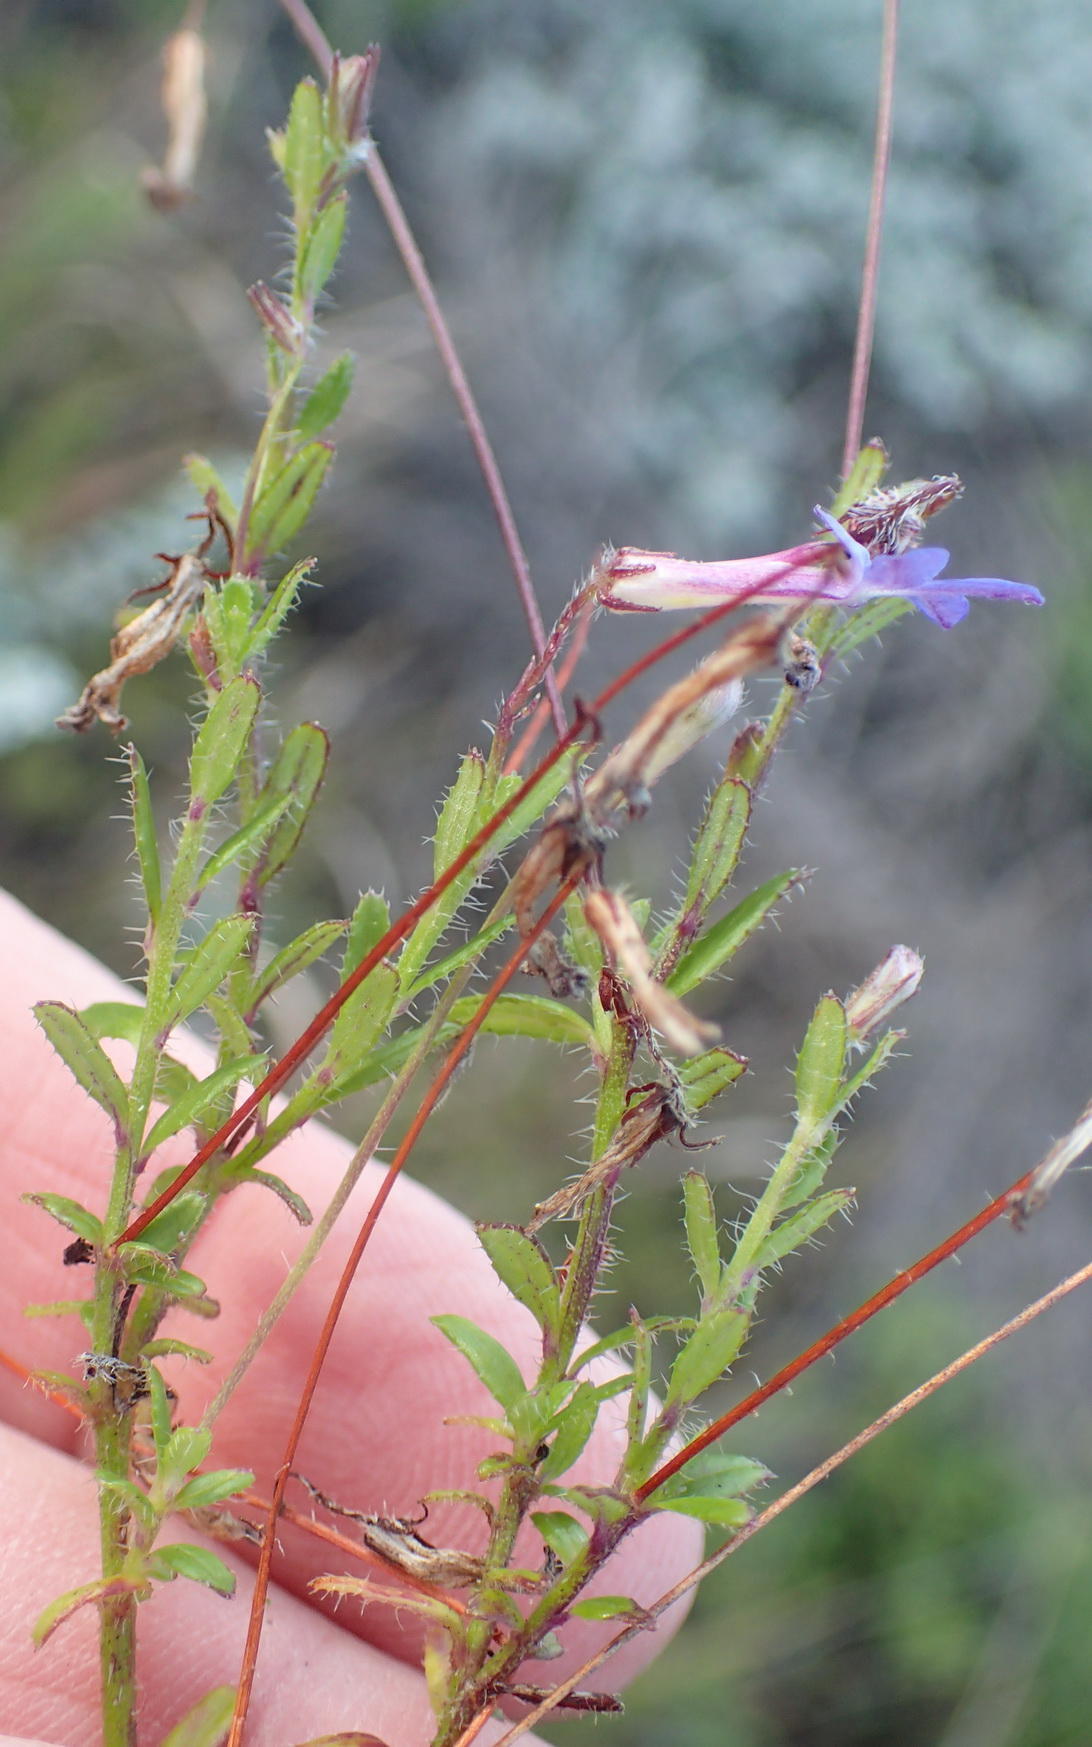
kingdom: Plantae
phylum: Tracheophyta
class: Magnoliopsida
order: Asterales
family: Campanulaceae
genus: Lobelia
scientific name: Lobelia neglecta
